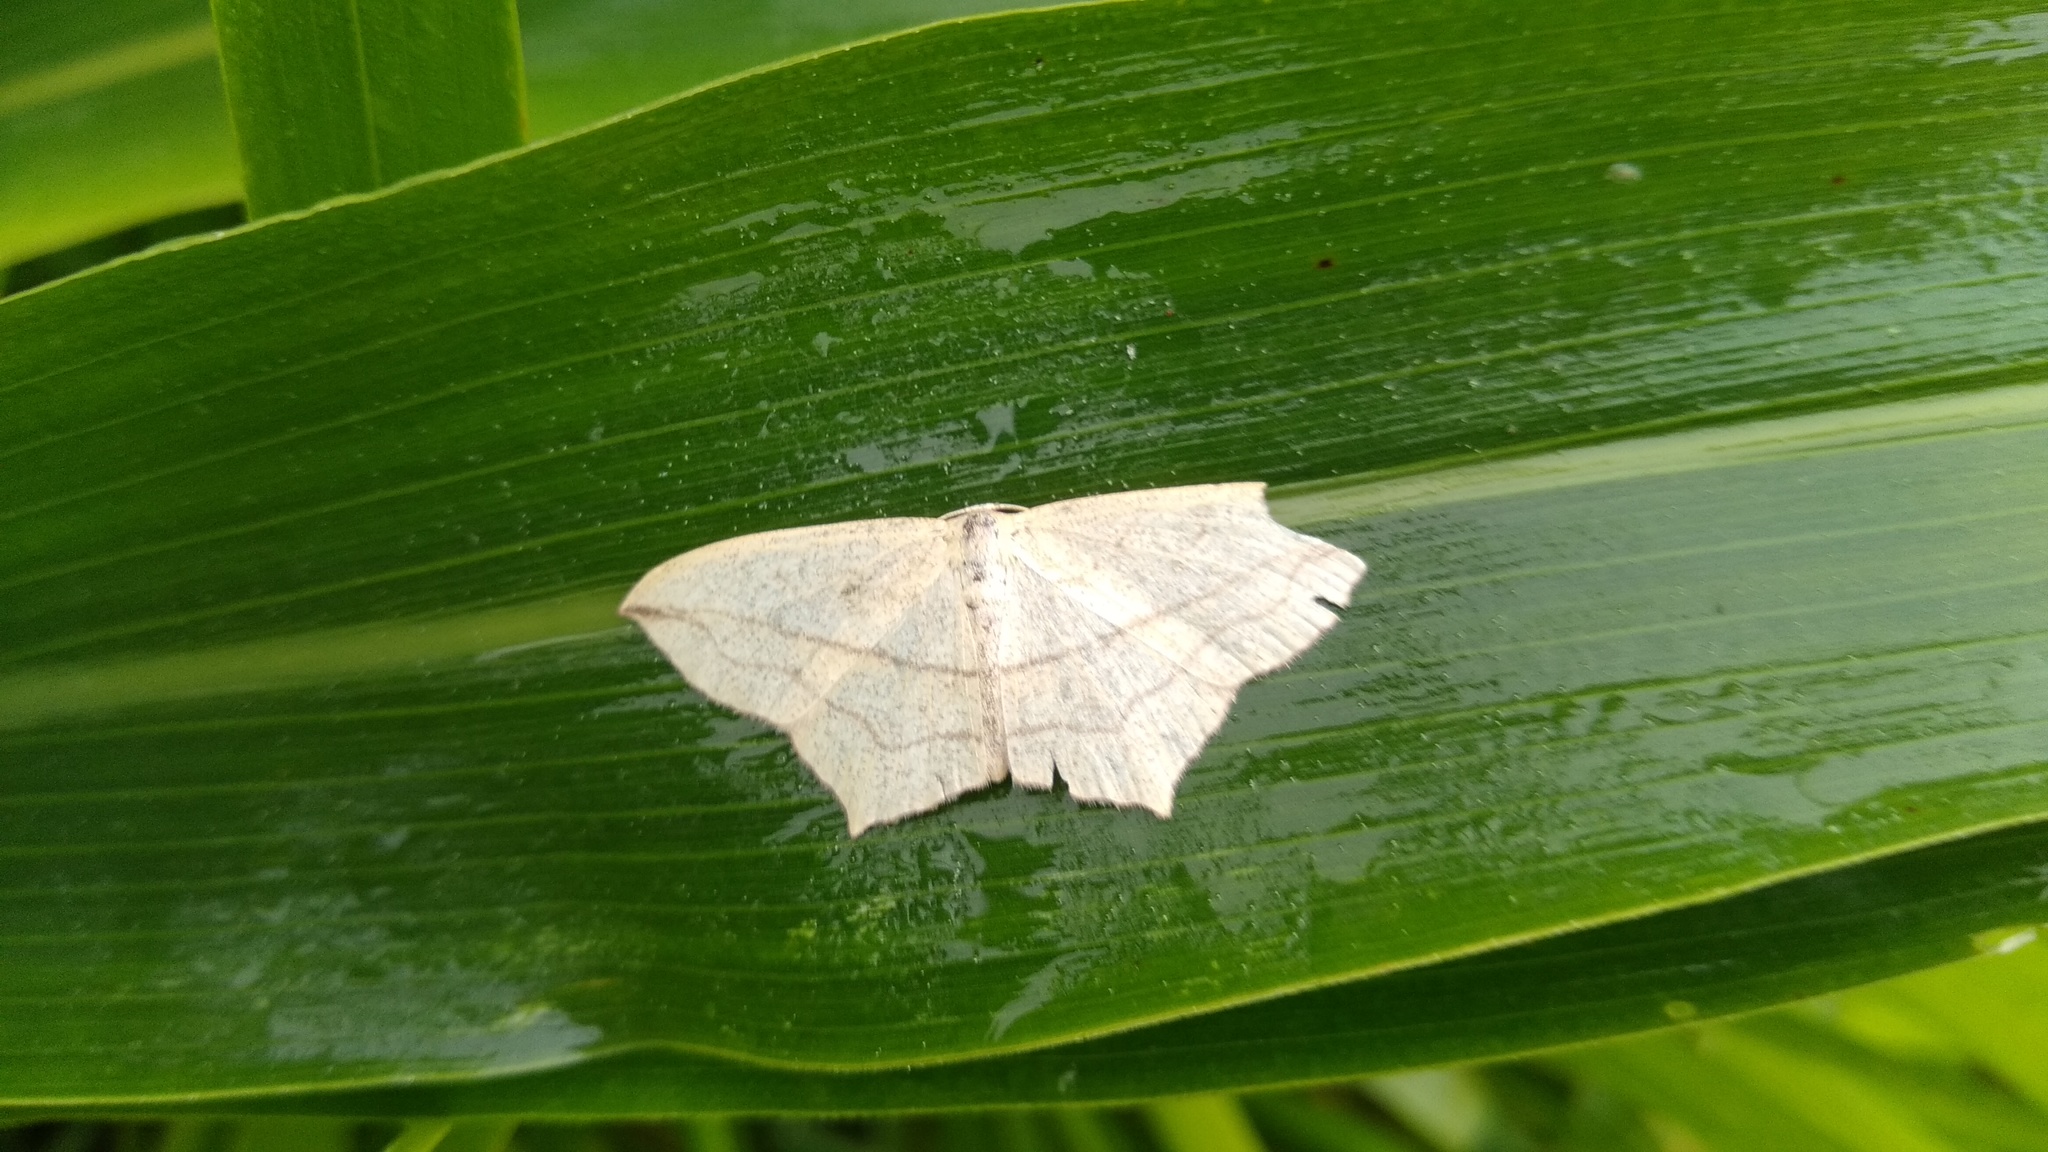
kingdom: Animalia
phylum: Arthropoda
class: Insecta
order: Lepidoptera
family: Geometridae
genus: Timandra
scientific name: Timandra comae
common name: Blood-vein
